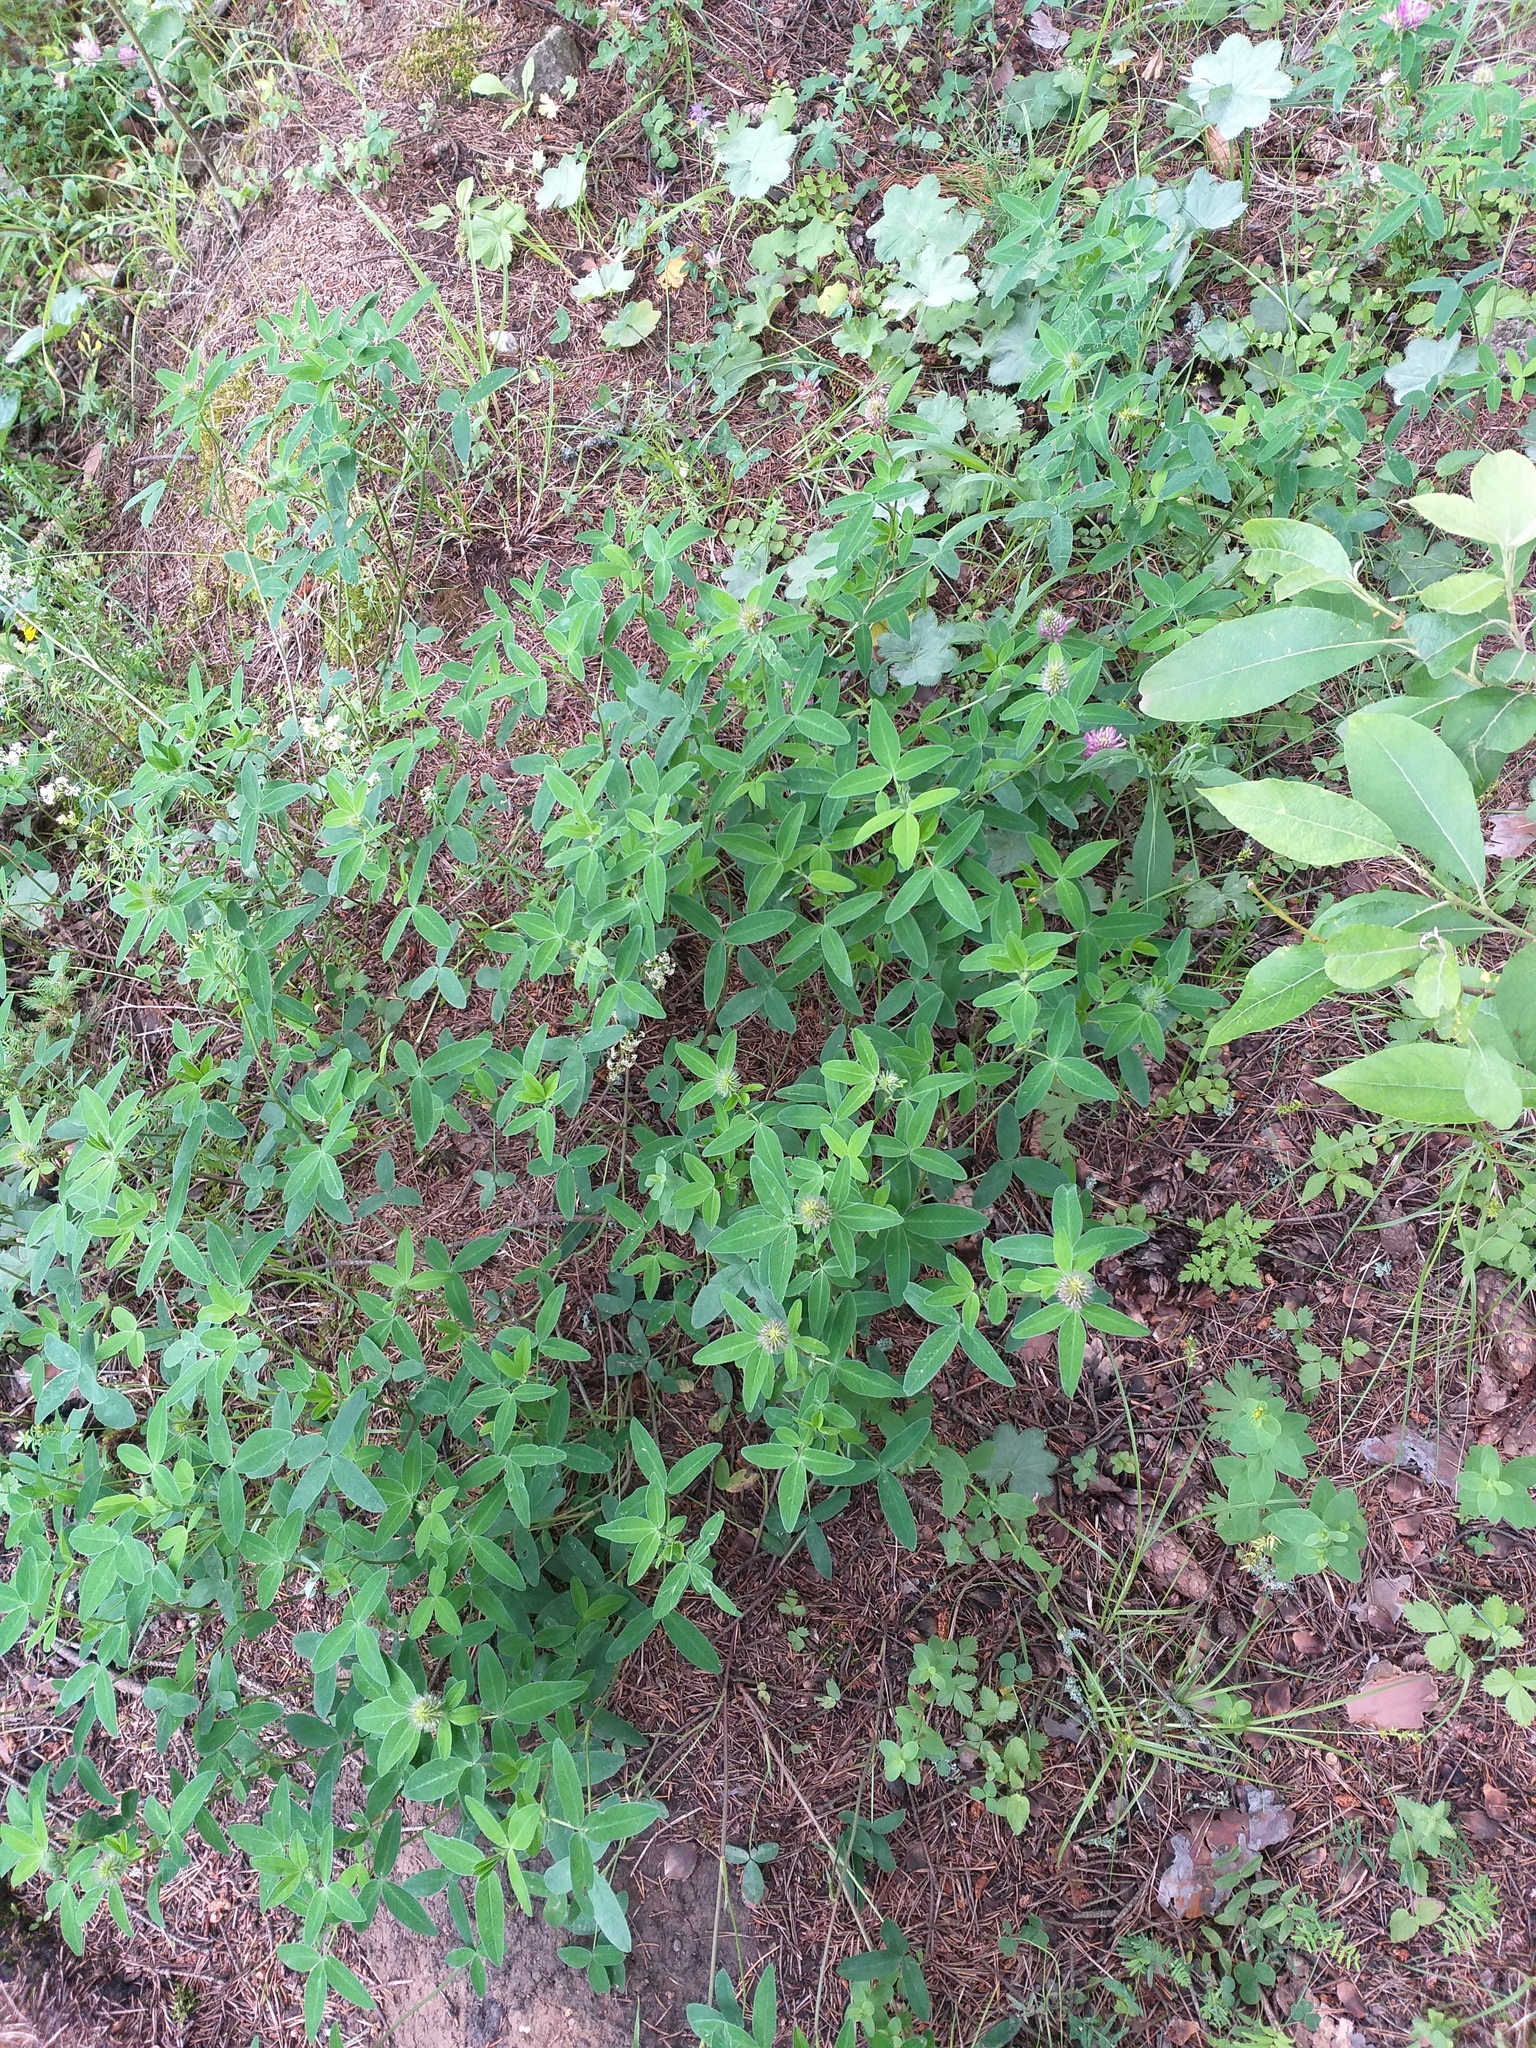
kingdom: Plantae
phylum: Tracheophyta
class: Magnoliopsida
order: Fabales
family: Fabaceae
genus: Trifolium
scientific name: Trifolium medium
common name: Zigzag clover
